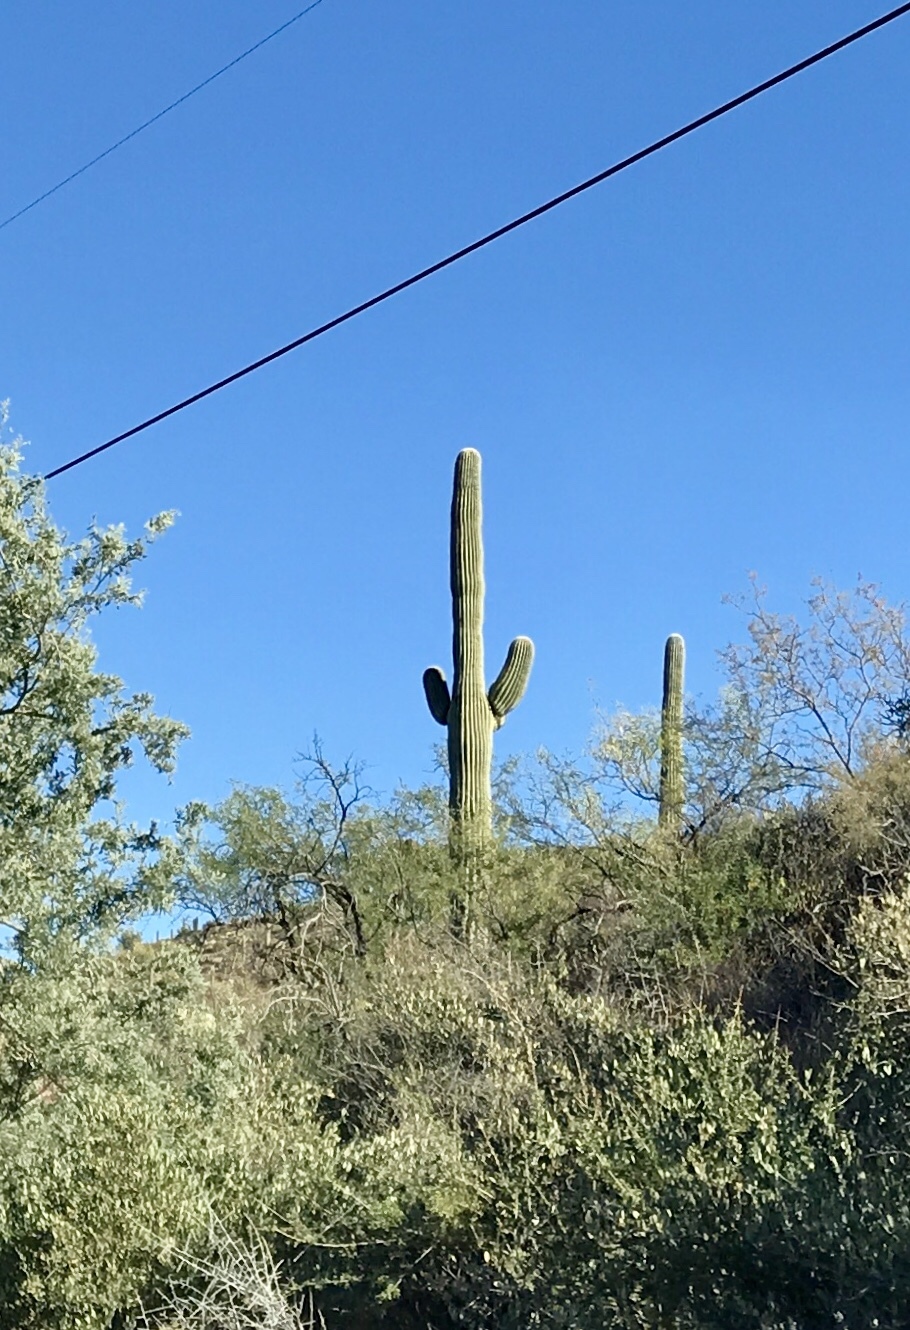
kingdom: Plantae
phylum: Tracheophyta
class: Magnoliopsida
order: Caryophyllales
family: Cactaceae
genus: Carnegiea
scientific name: Carnegiea gigantea
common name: Saguaro
